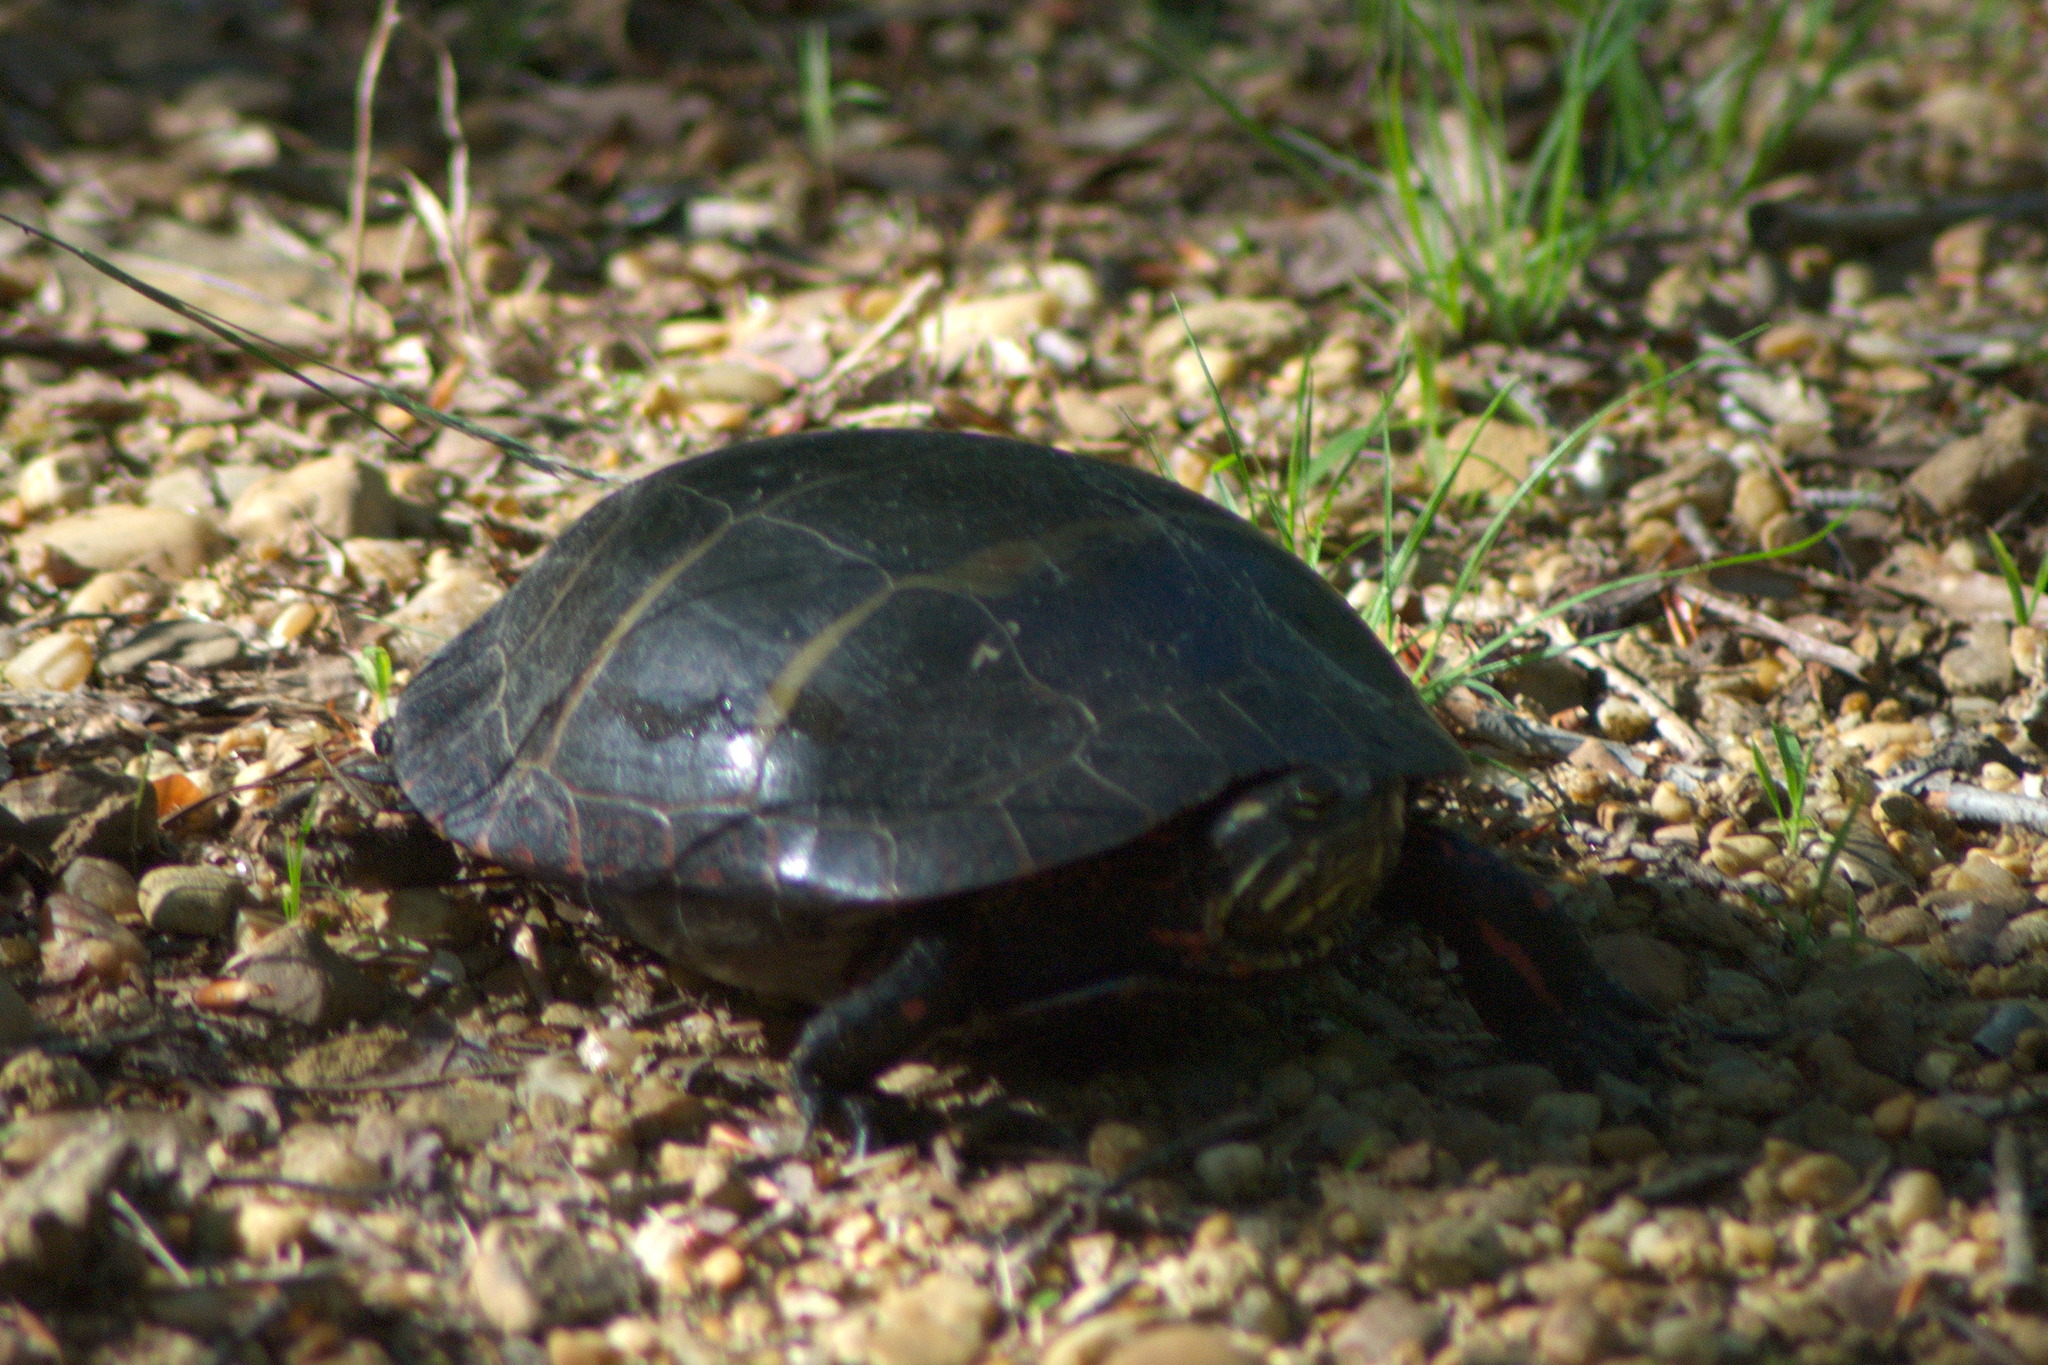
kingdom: Animalia
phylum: Chordata
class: Testudines
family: Emydidae
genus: Chrysemys
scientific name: Chrysemys picta
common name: Painted turtle
